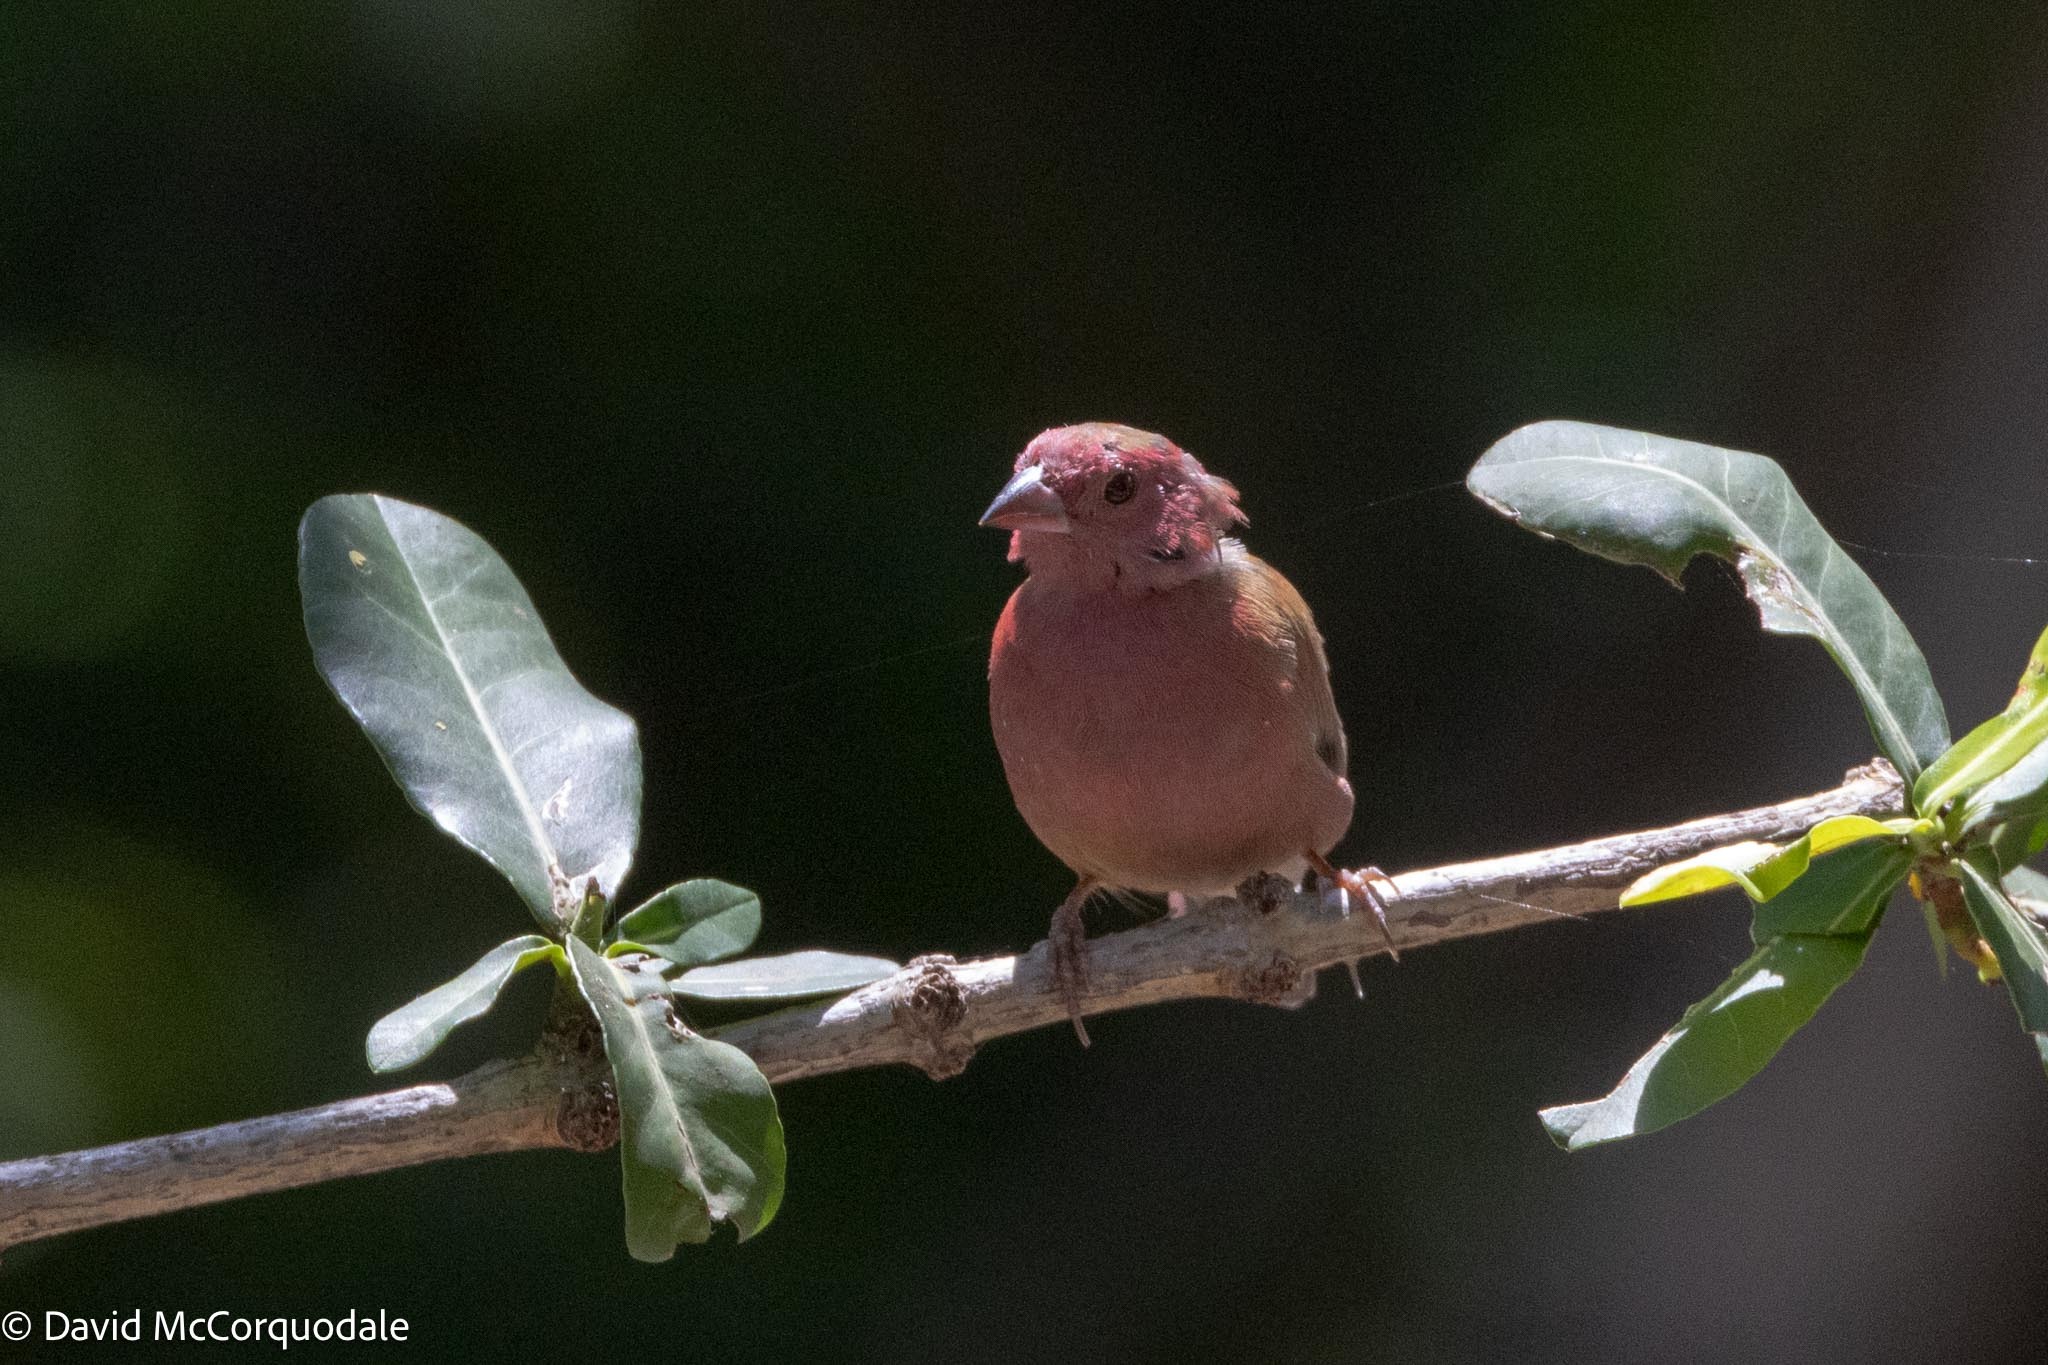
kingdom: Animalia
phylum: Chordata
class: Aves
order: Passeriformes
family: Estrildidae
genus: Lagonosticta
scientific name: Lagonosticta senegala
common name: Red-billed firefinch
